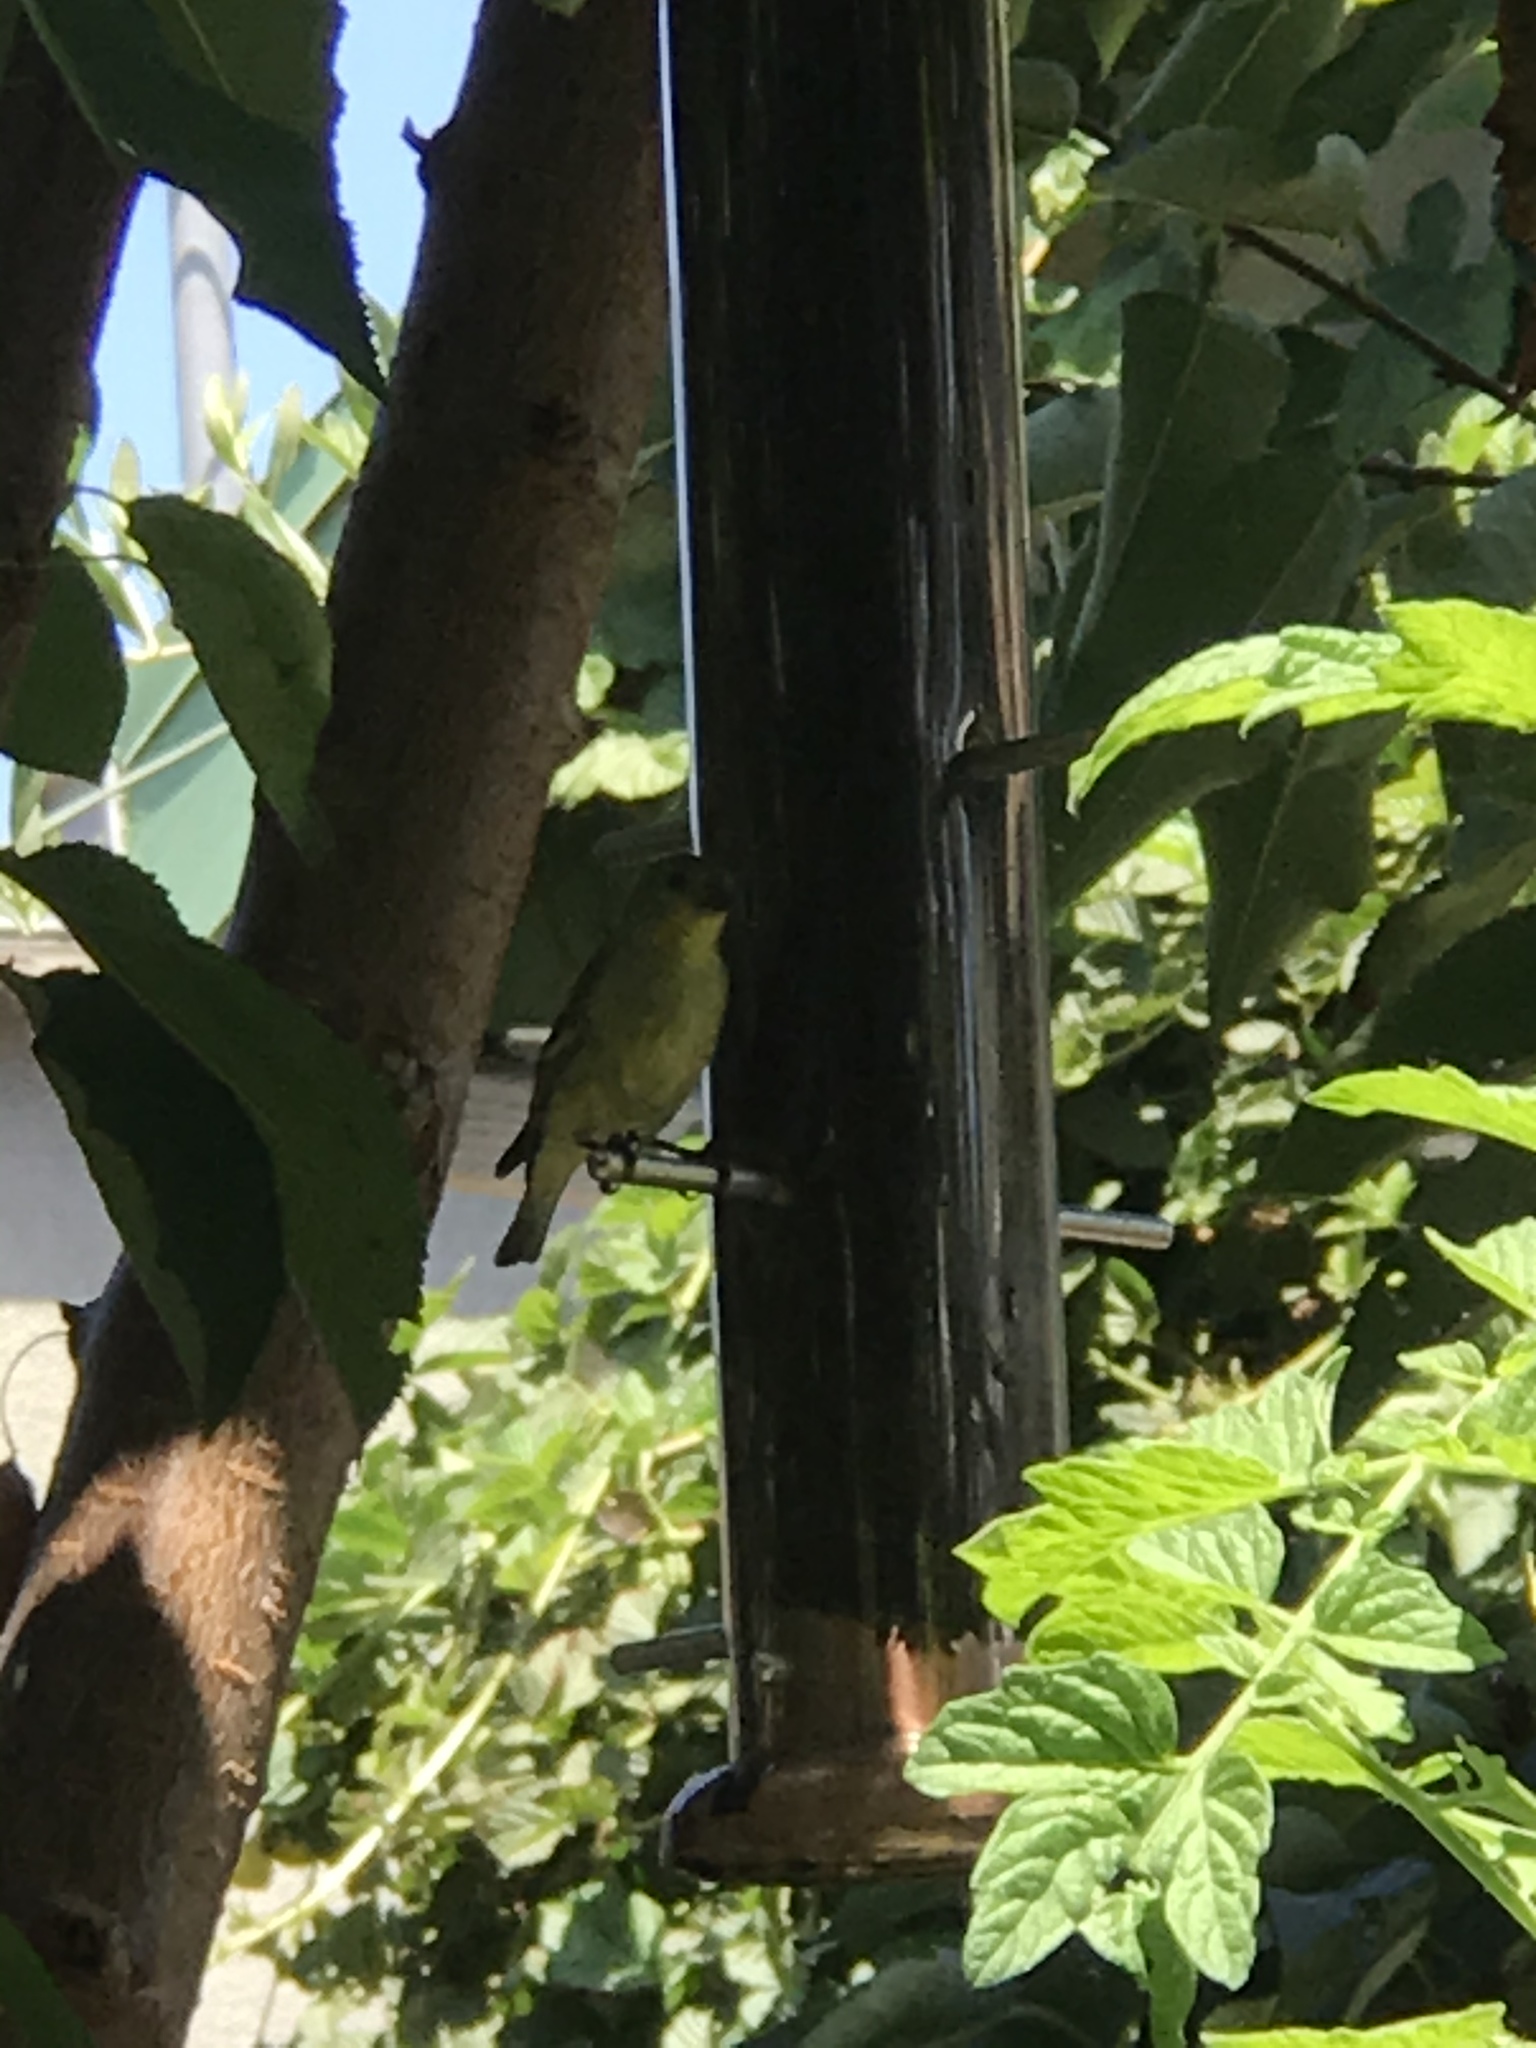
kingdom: Animalia
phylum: Chordata
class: Aves
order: Passeriformes
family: Fringillidae
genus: Spinus
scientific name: Spinus psaltria
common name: Lesser goldfinch
